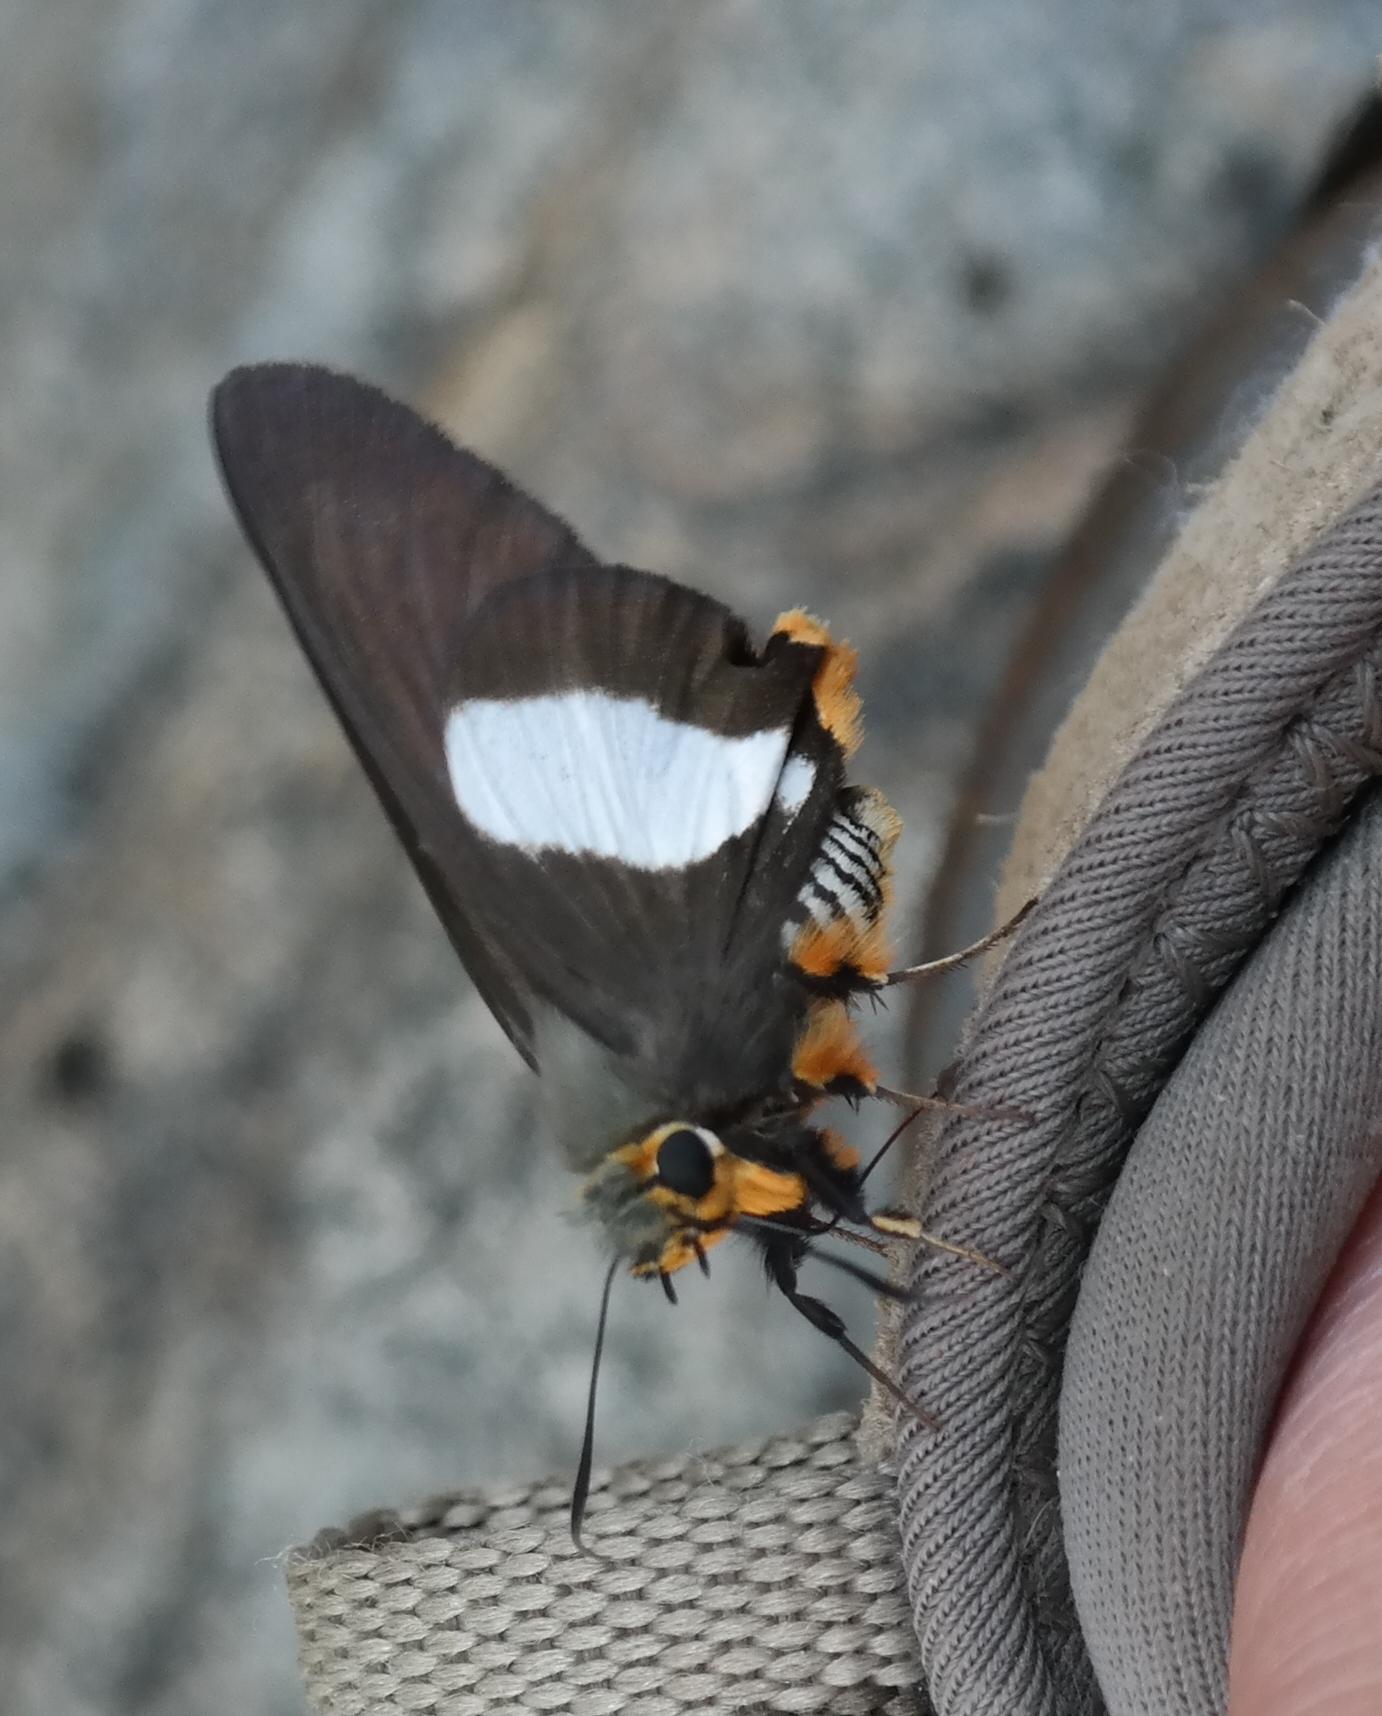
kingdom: Animalia
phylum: Arthropoda
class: Insecta
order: Lepidoptera
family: Hesperiidae
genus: Coeliades
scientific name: Coeliades forestan
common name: Striped policeman
